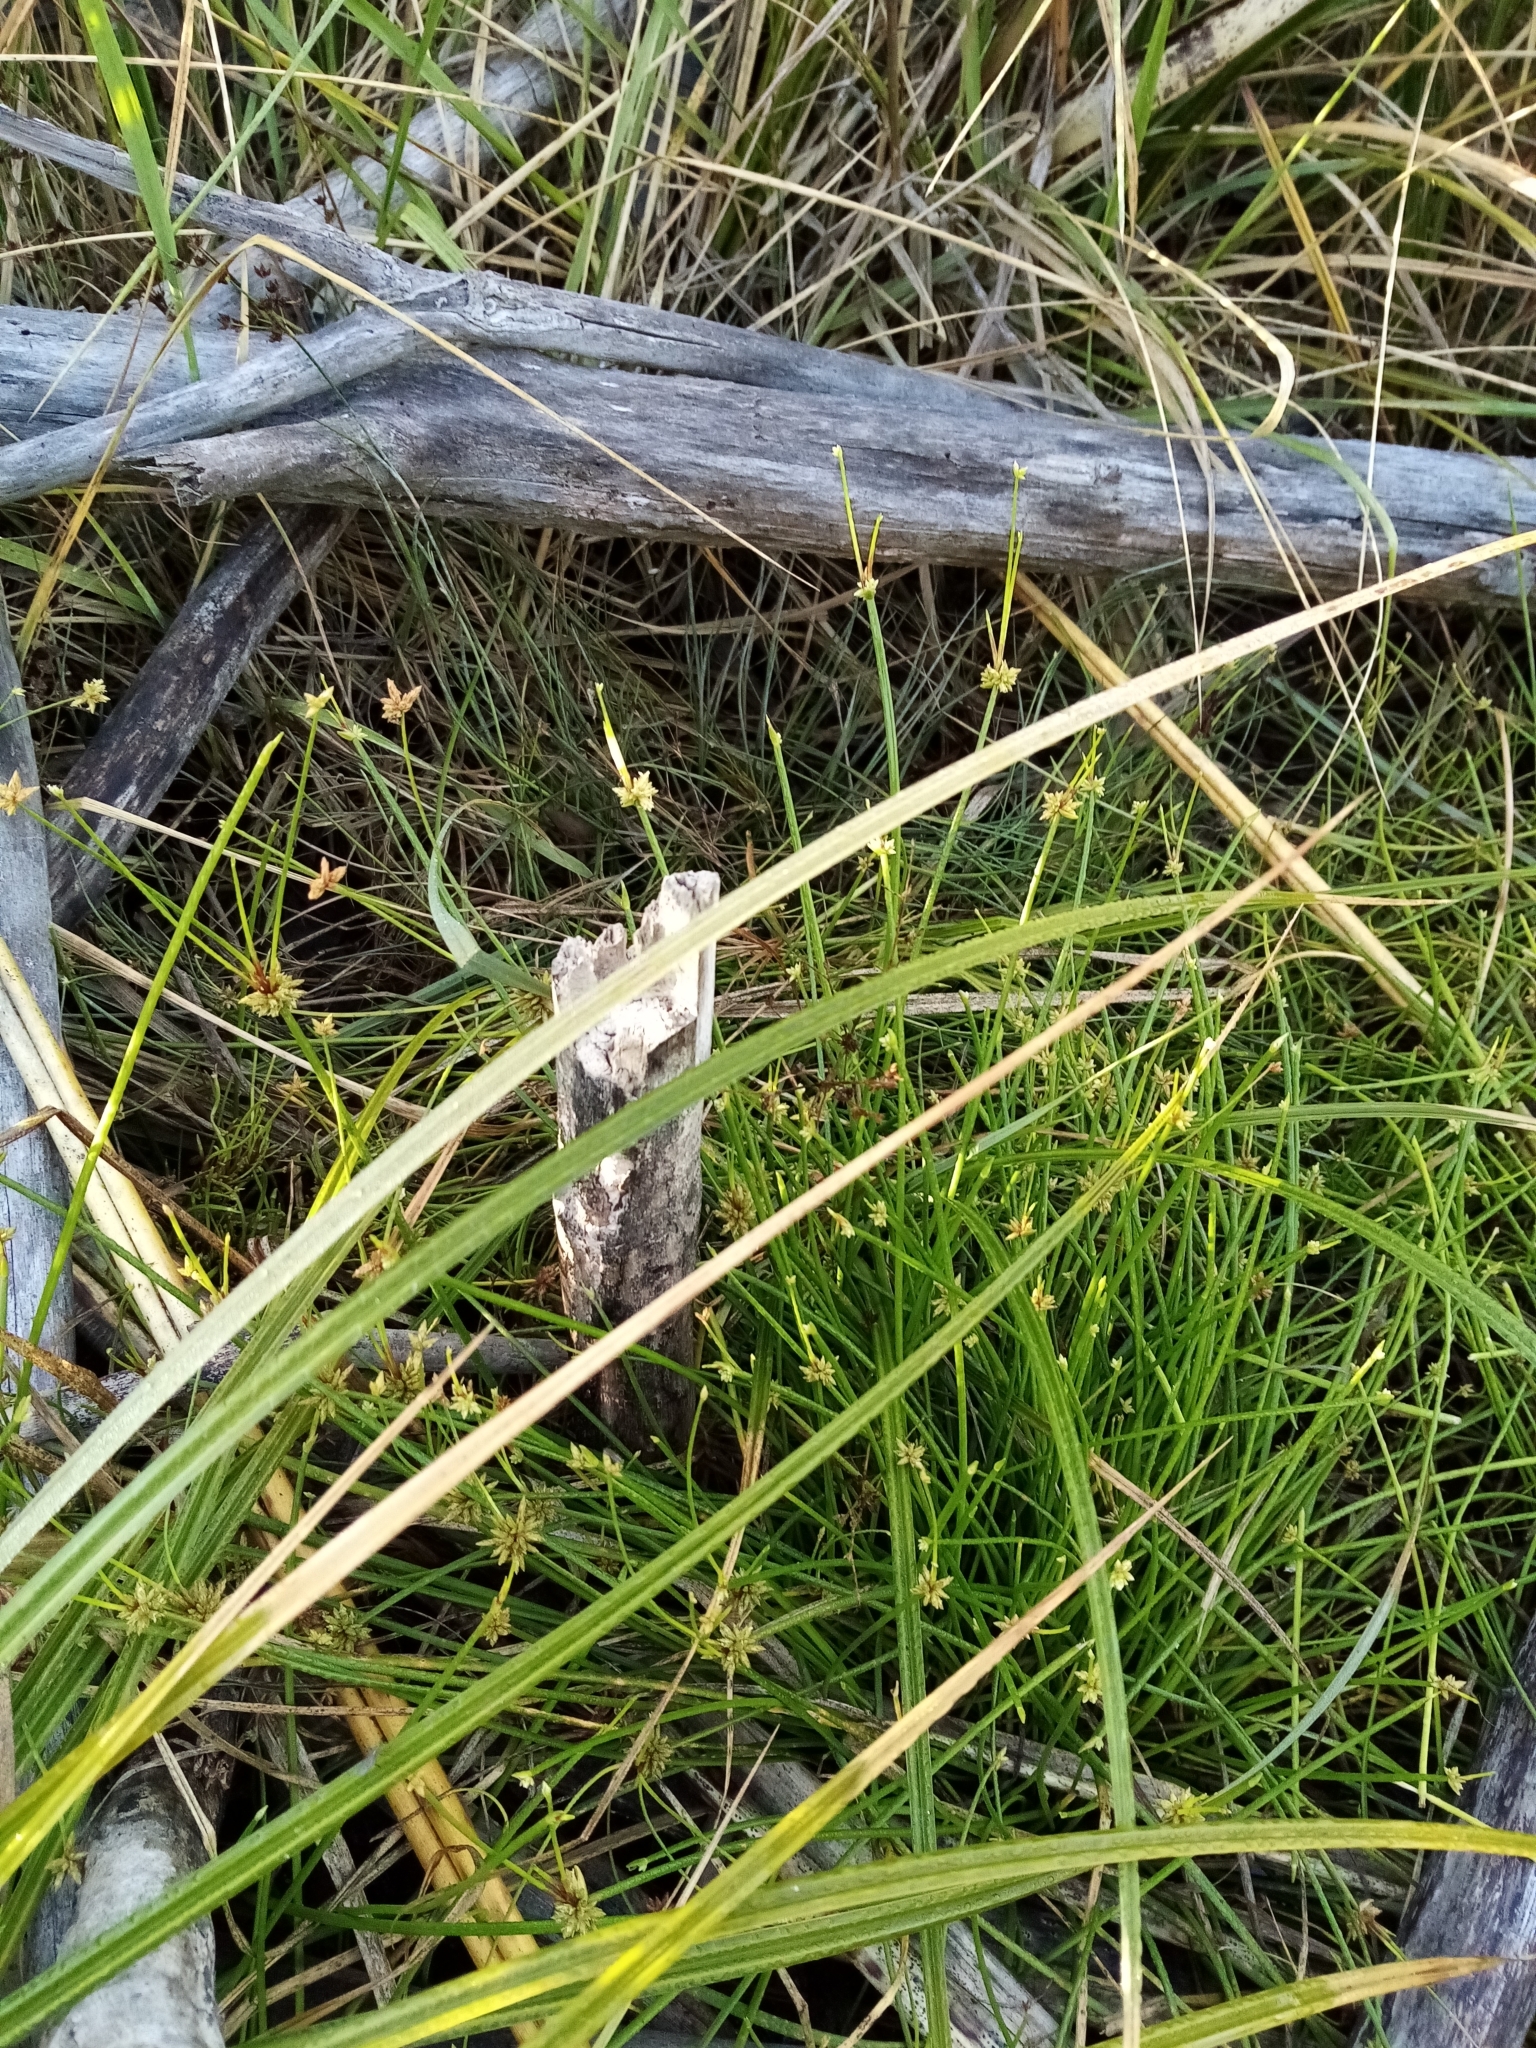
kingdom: Plantae
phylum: Tracheophyta
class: Liliopsida
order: Poales
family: Cyperaceae
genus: Isolepis
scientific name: Isolepis prolifera
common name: Proliferating bulrush
